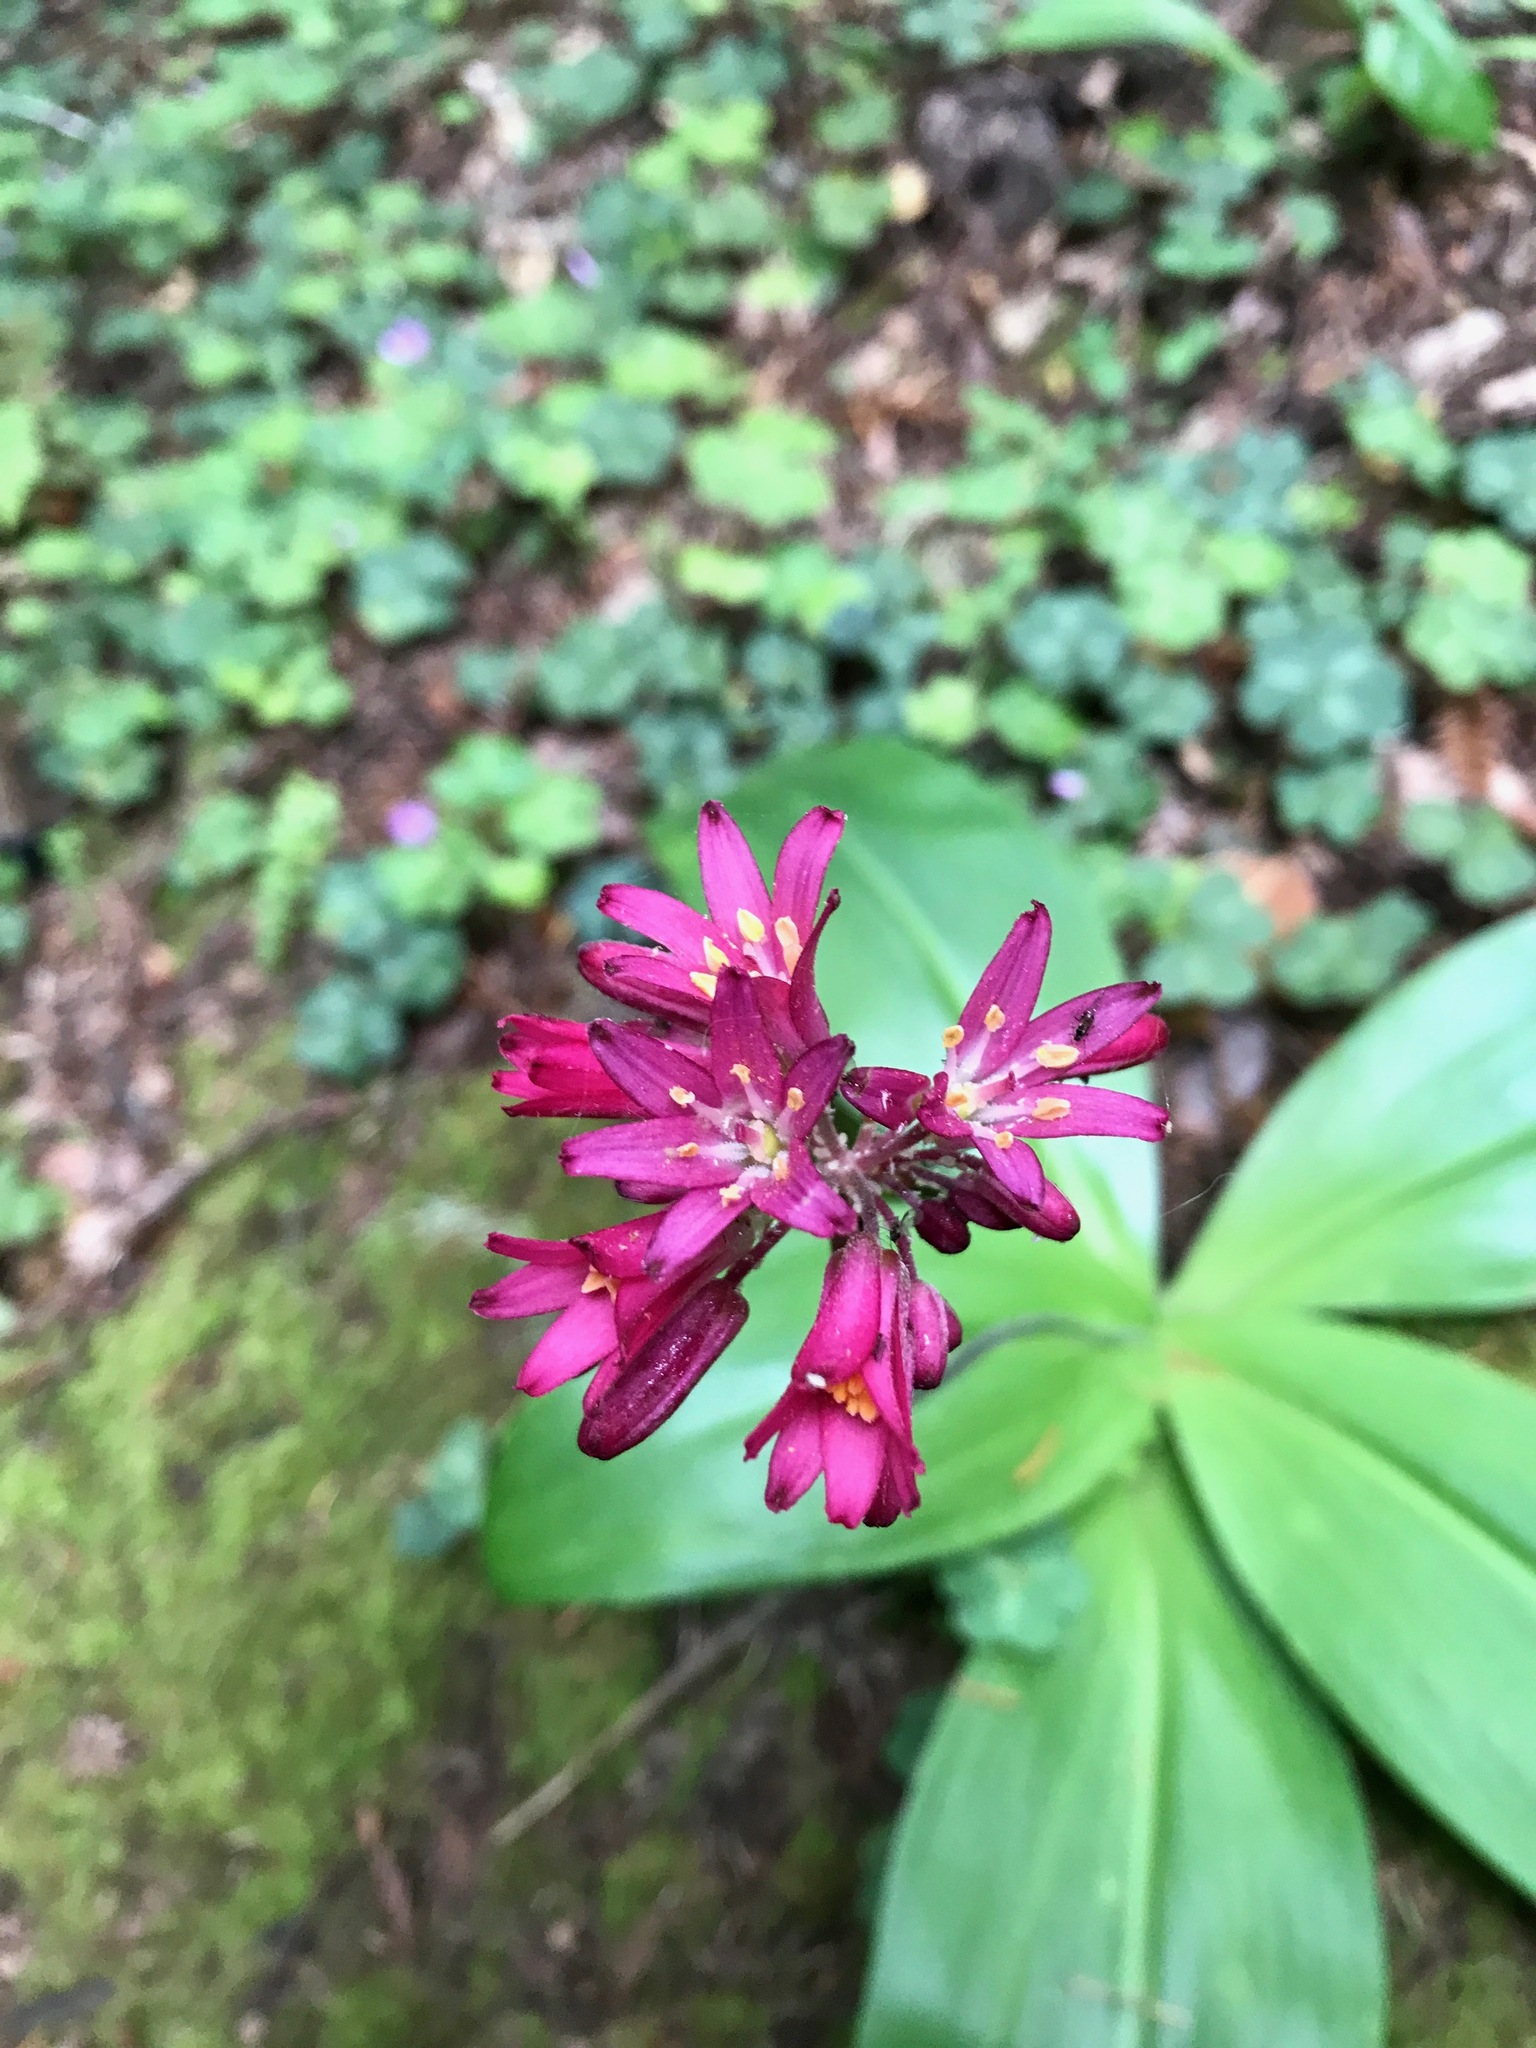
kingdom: Plantae
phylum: Tracheophyta
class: Liliopsida
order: Liliales
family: Liliaceae
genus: Clintonia
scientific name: Clintonia andrewsiana
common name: Red clintonia
